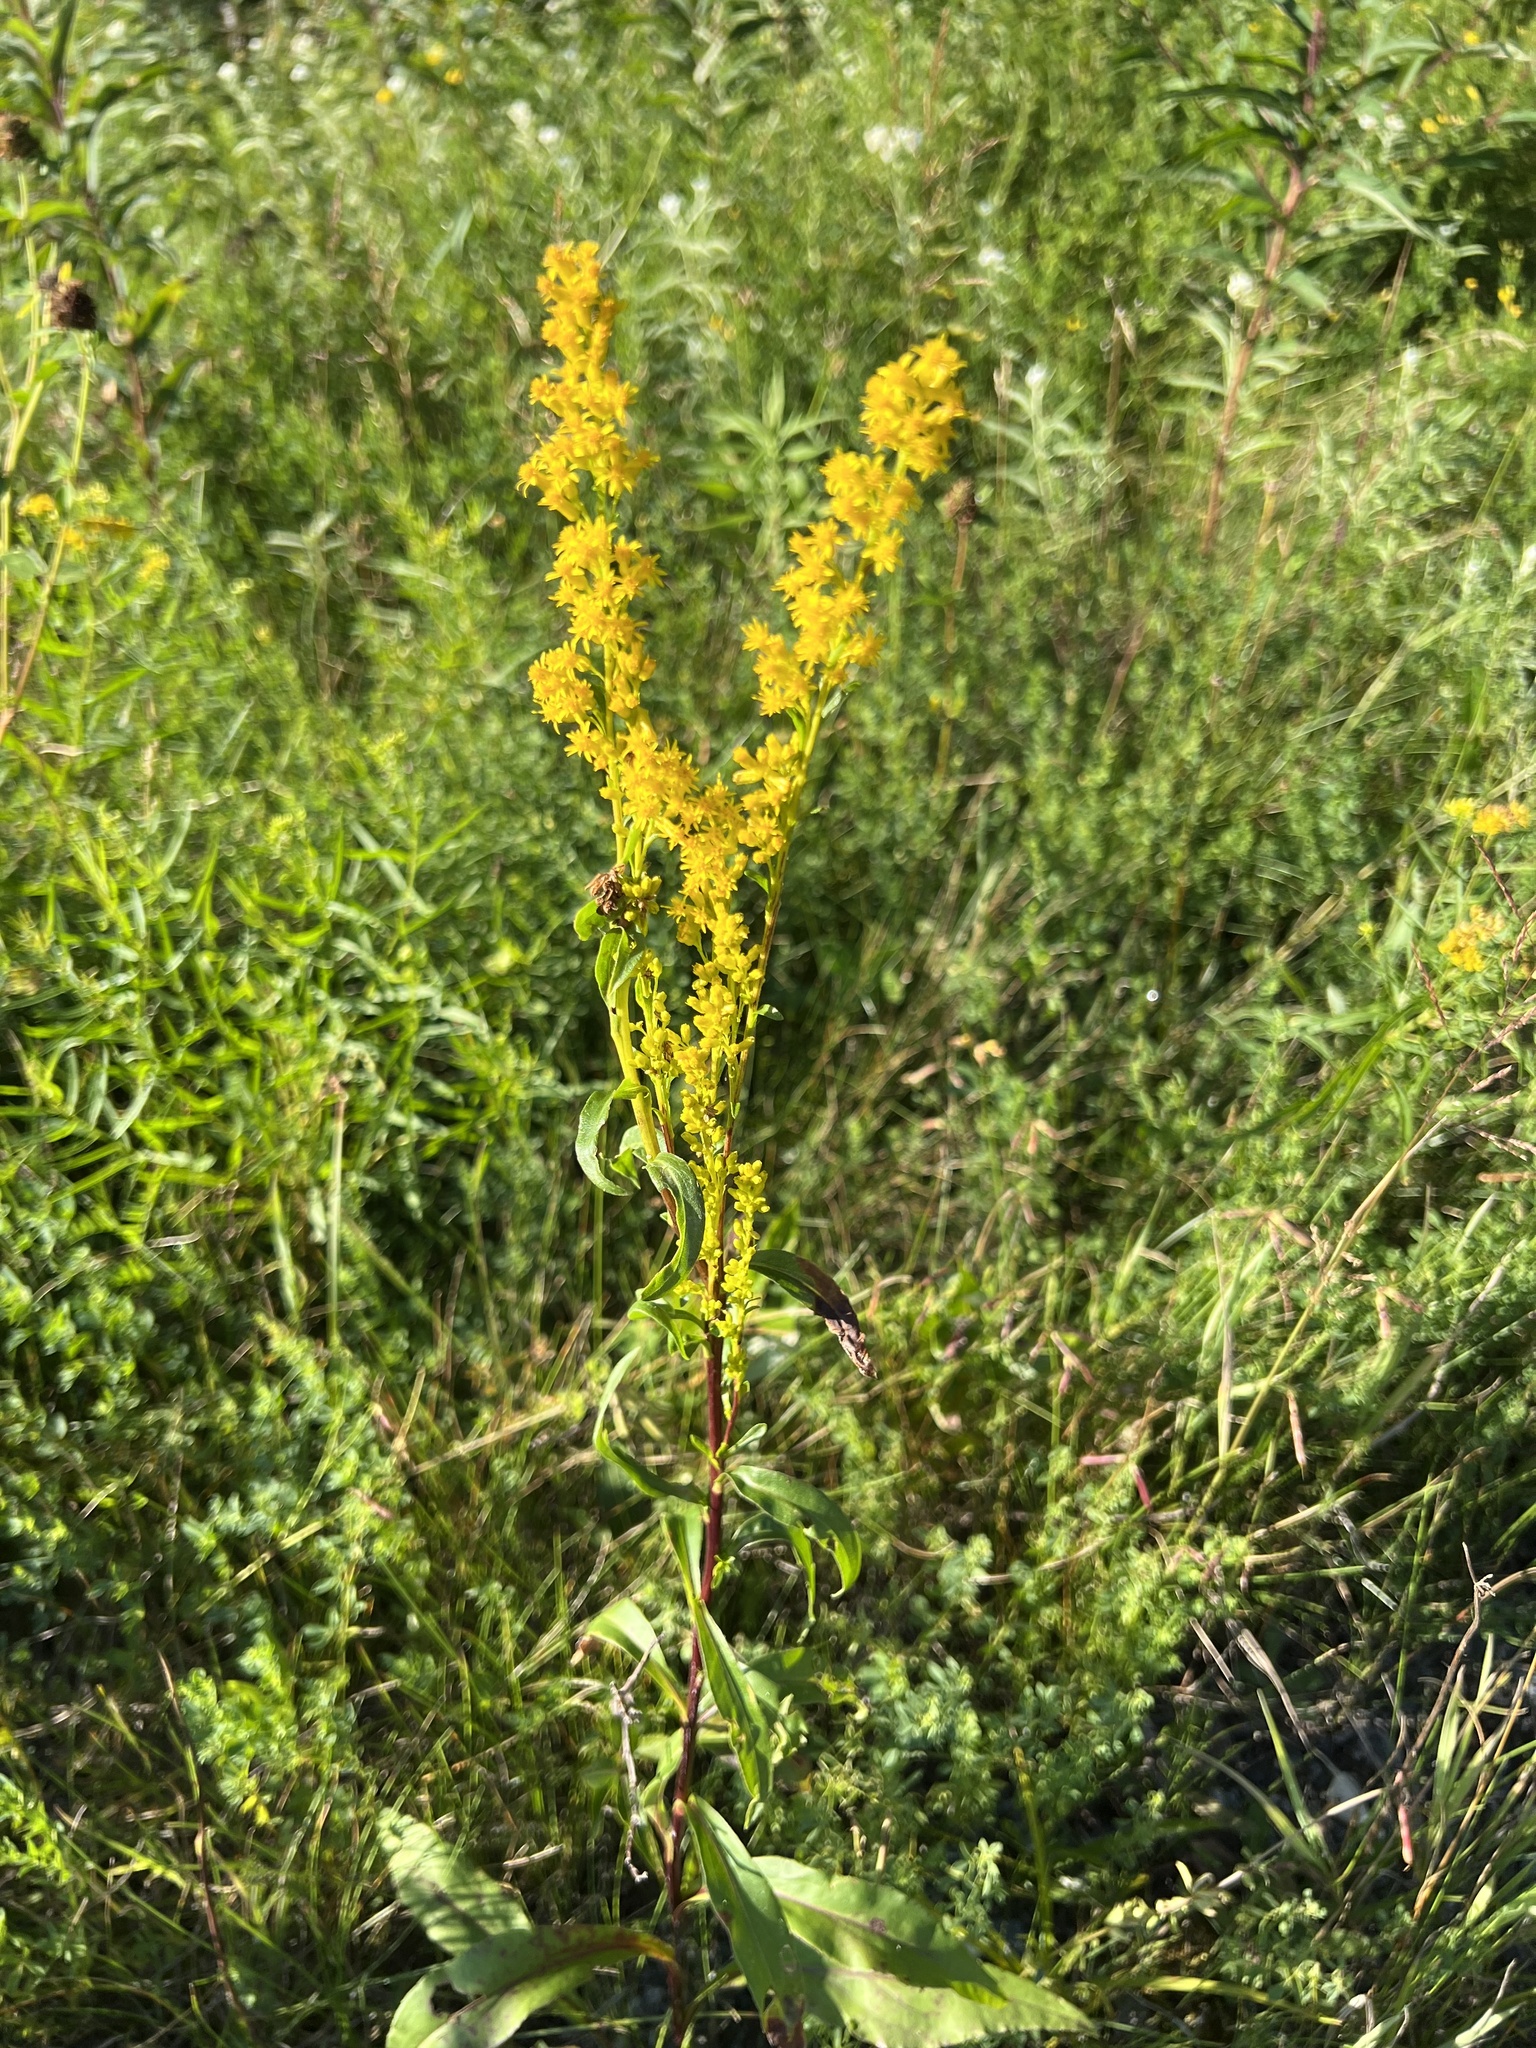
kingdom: Plantae
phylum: Tracheophyta
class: Magnoliopsida
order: Asterales
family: Asteraceae
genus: Solidago
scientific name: Solidago juncea
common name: Early goldenrod
